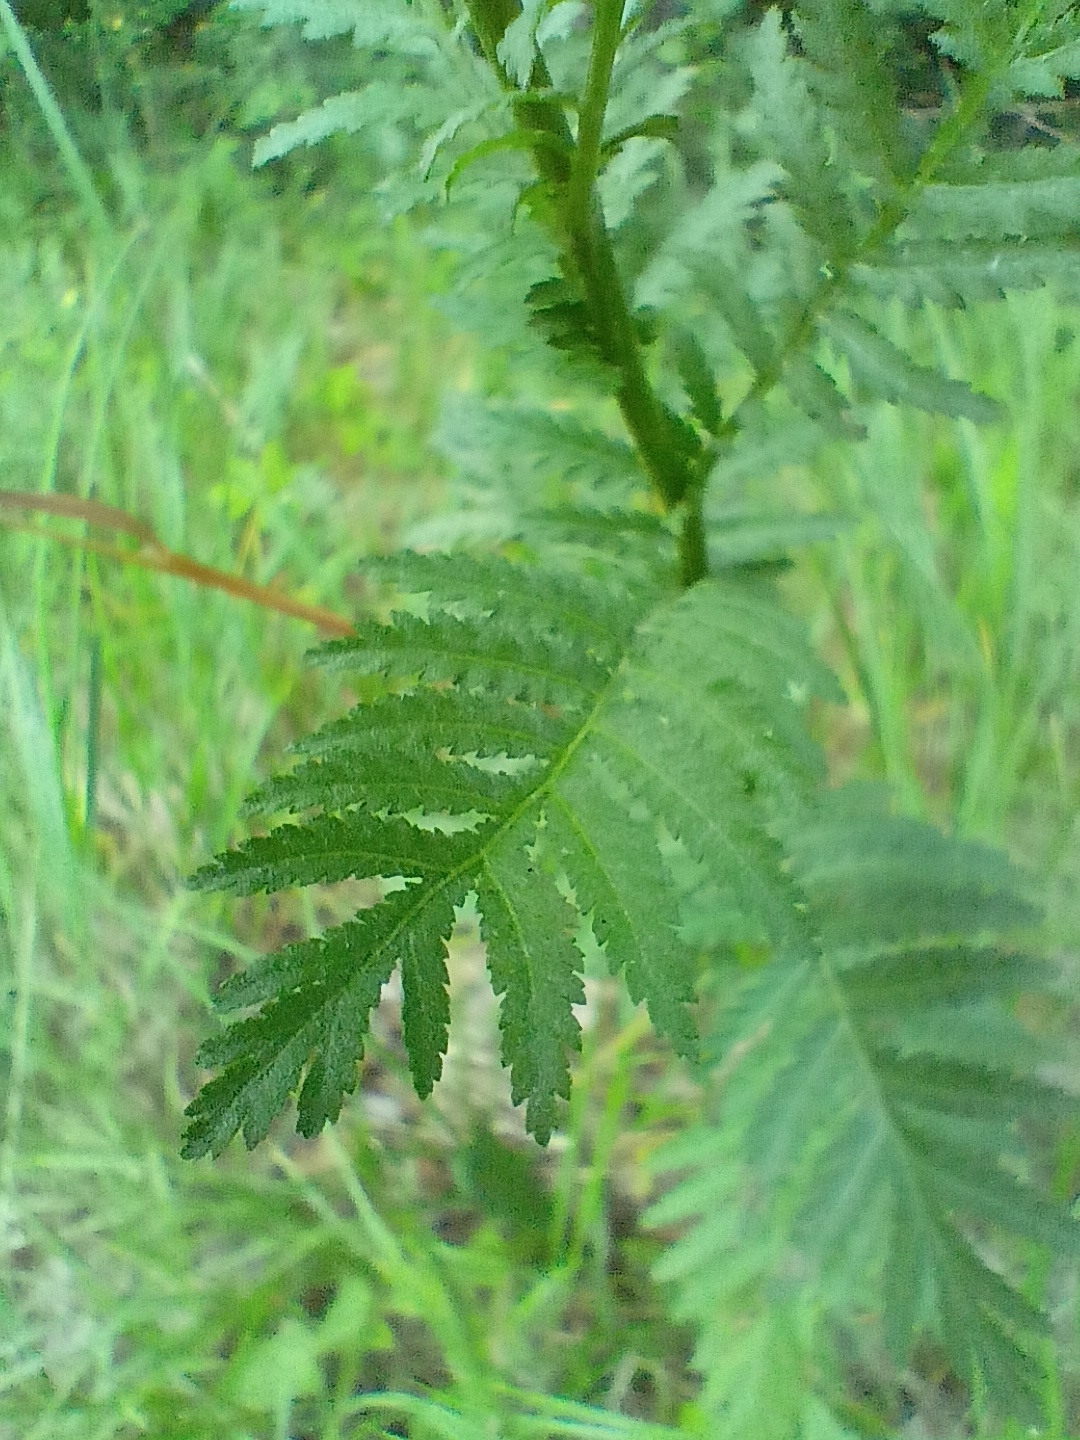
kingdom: Plantae
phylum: Tracheophyta
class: Magnoliopsida
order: Asterales
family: Asteraceae
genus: Tanacetum
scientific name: Tanacetum vulgare
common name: Common tansy
